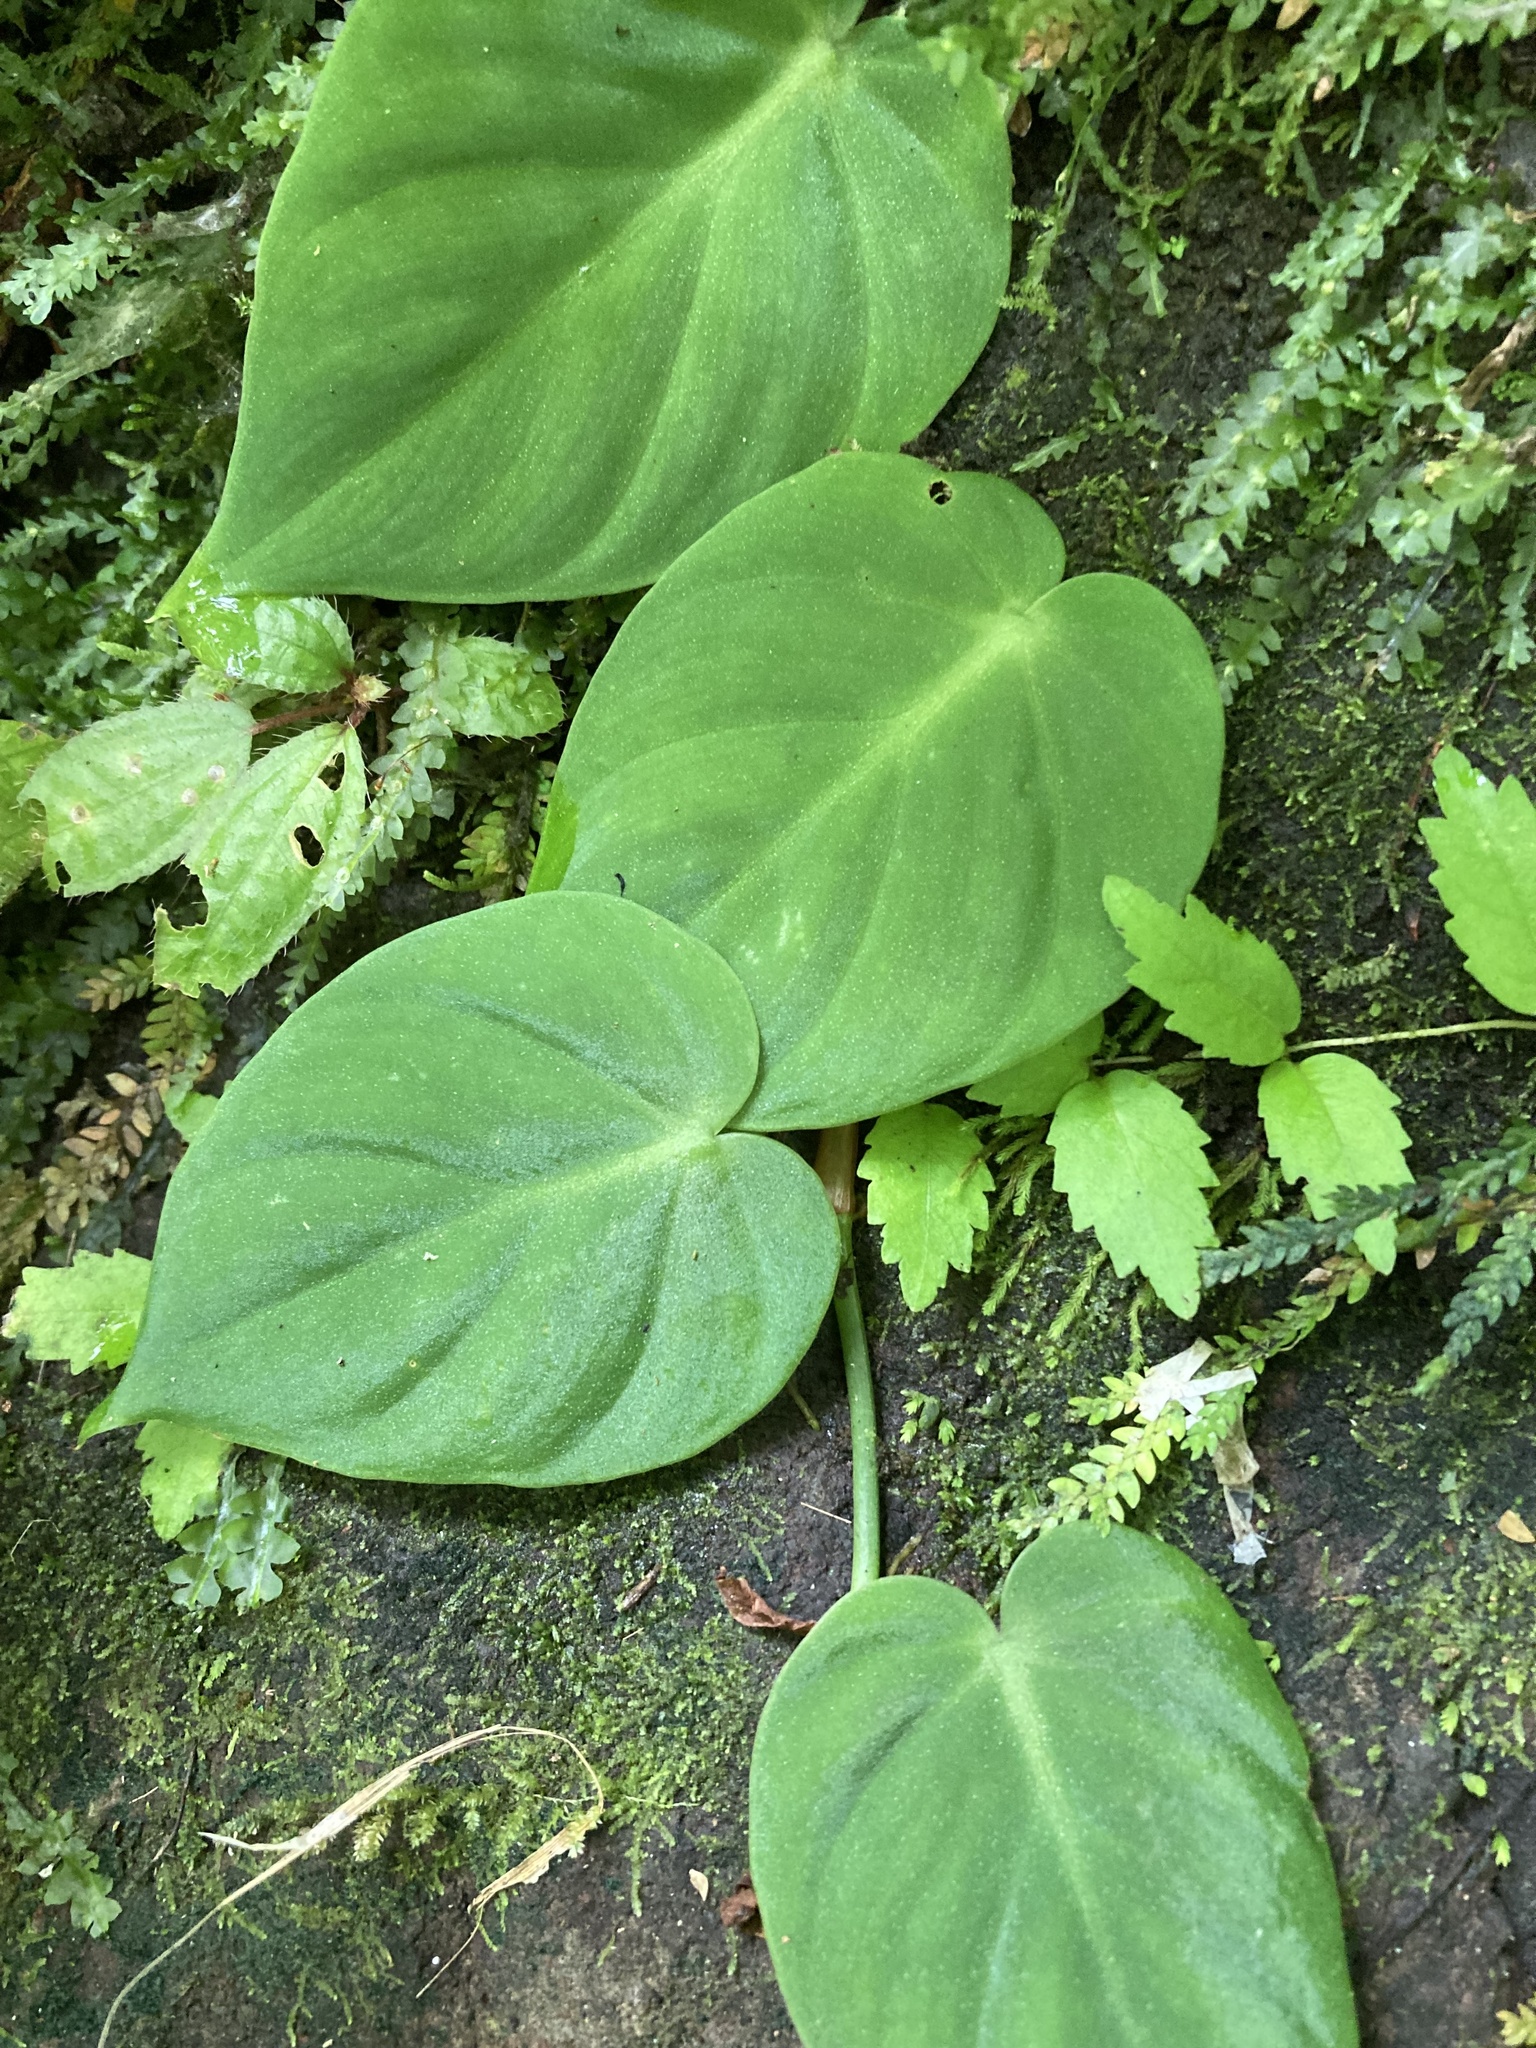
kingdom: Plantae
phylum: Tracheophyta
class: Liliopsida
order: Alismatales
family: Araceae
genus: Philodendron
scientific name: Philodendron hederaceum
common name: Vilevine
